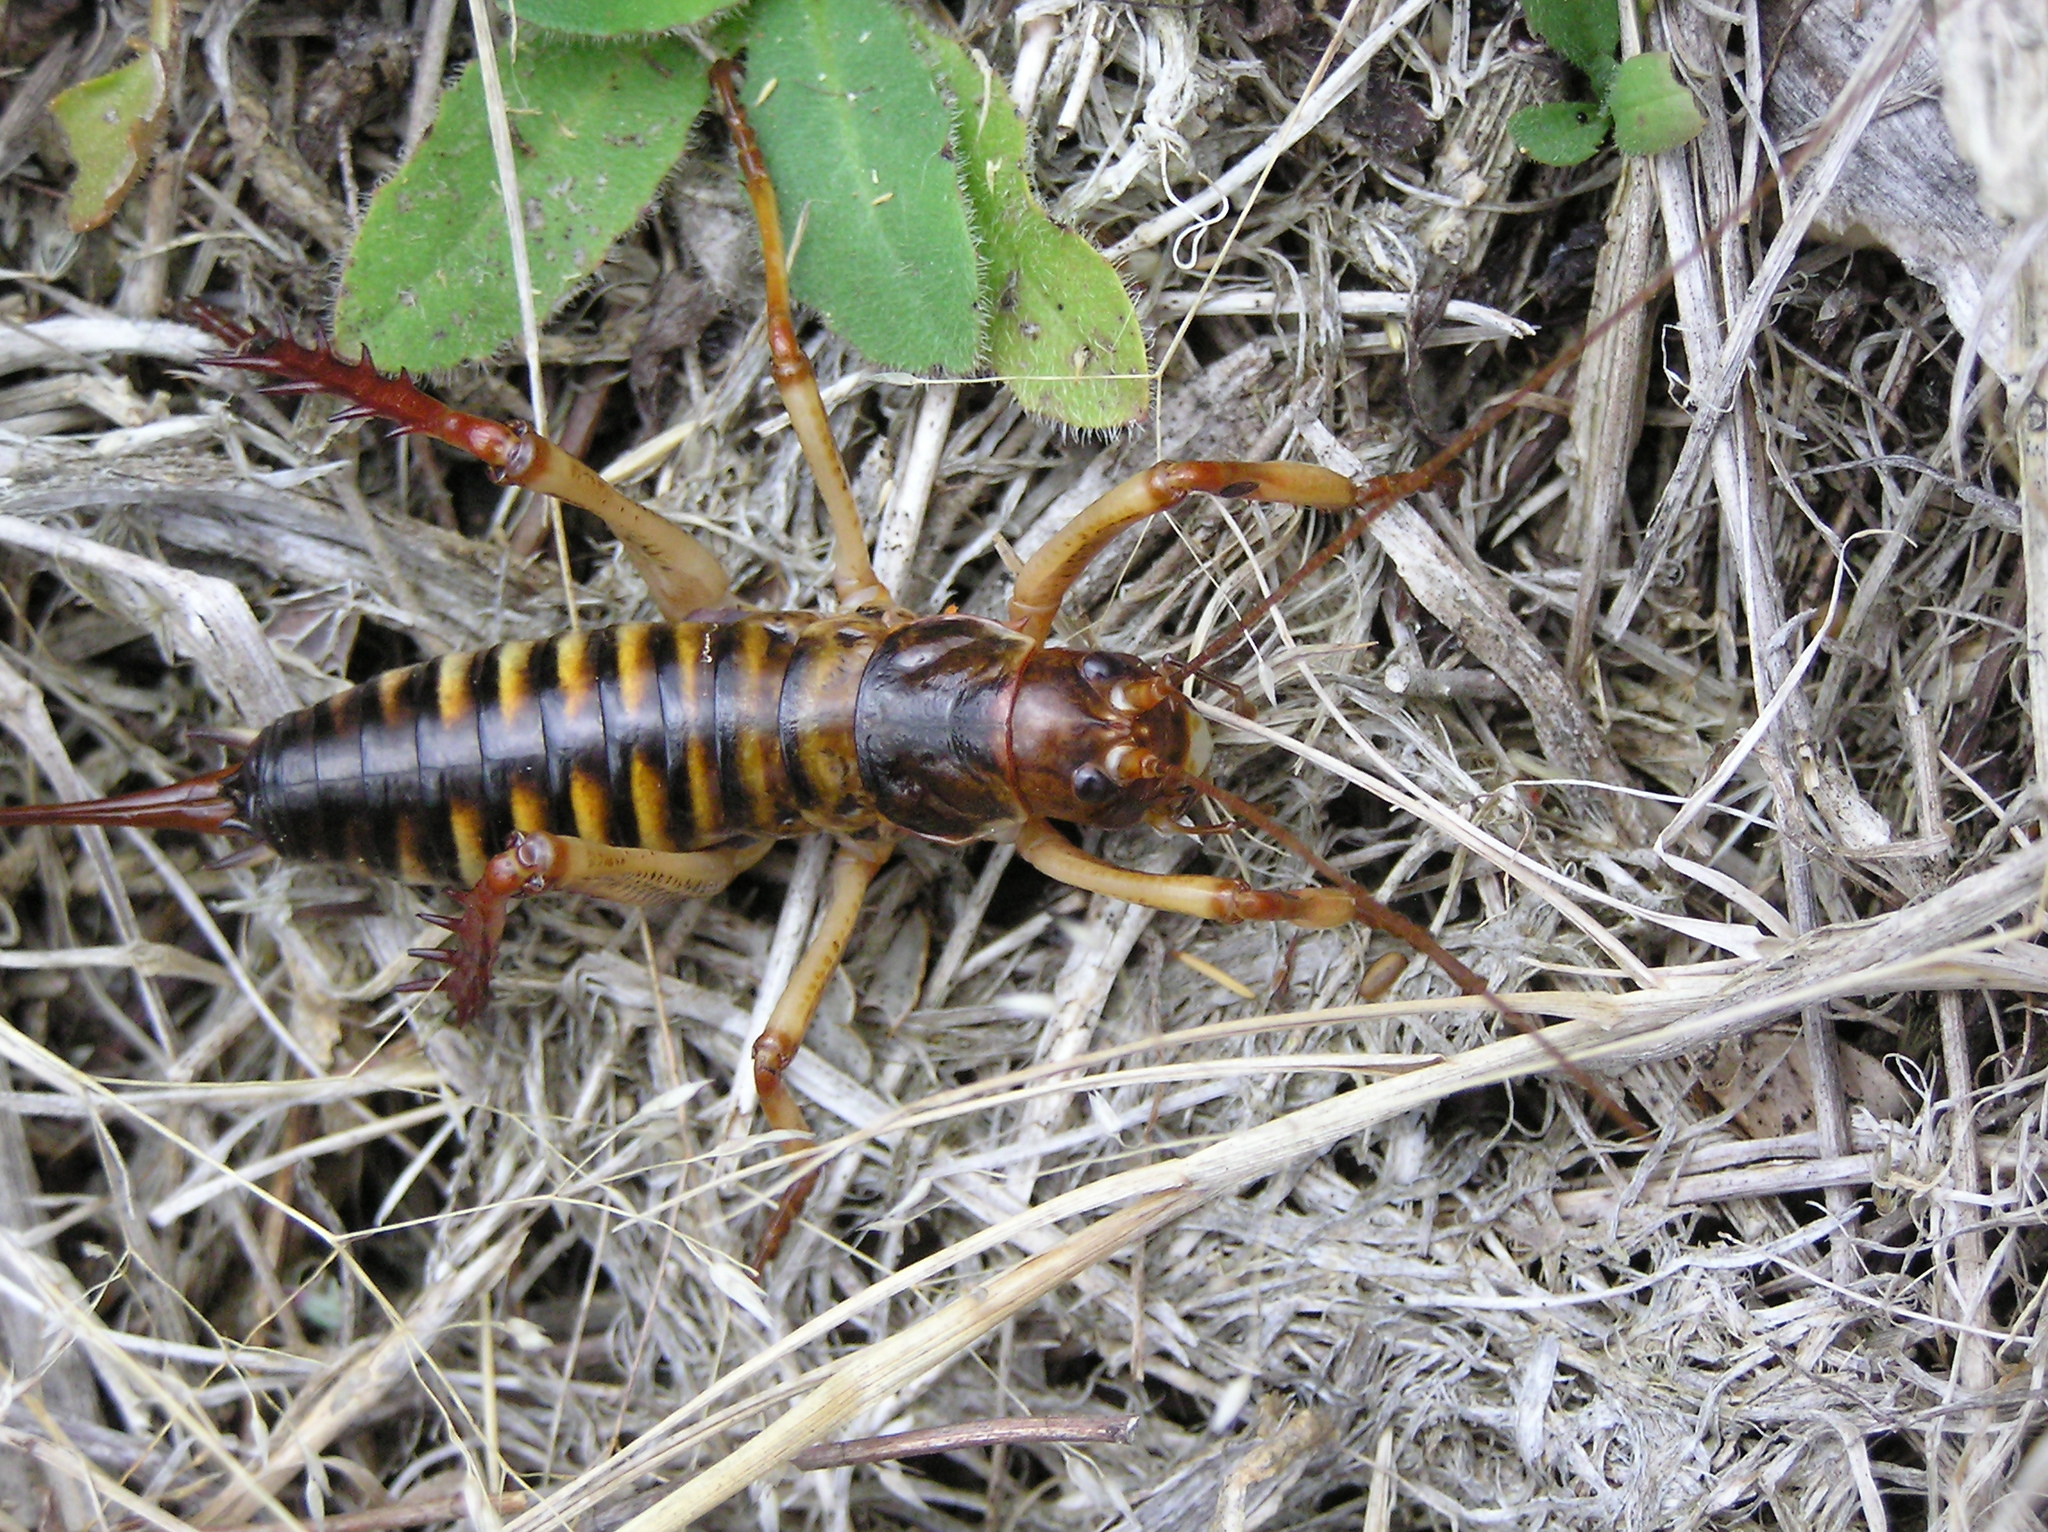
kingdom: Animalia
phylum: Arthropoda
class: Insecta
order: Orthoptera
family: Anostostomatidae
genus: Hemideina
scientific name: Hemideina crassidens
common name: Wellington tree weta
